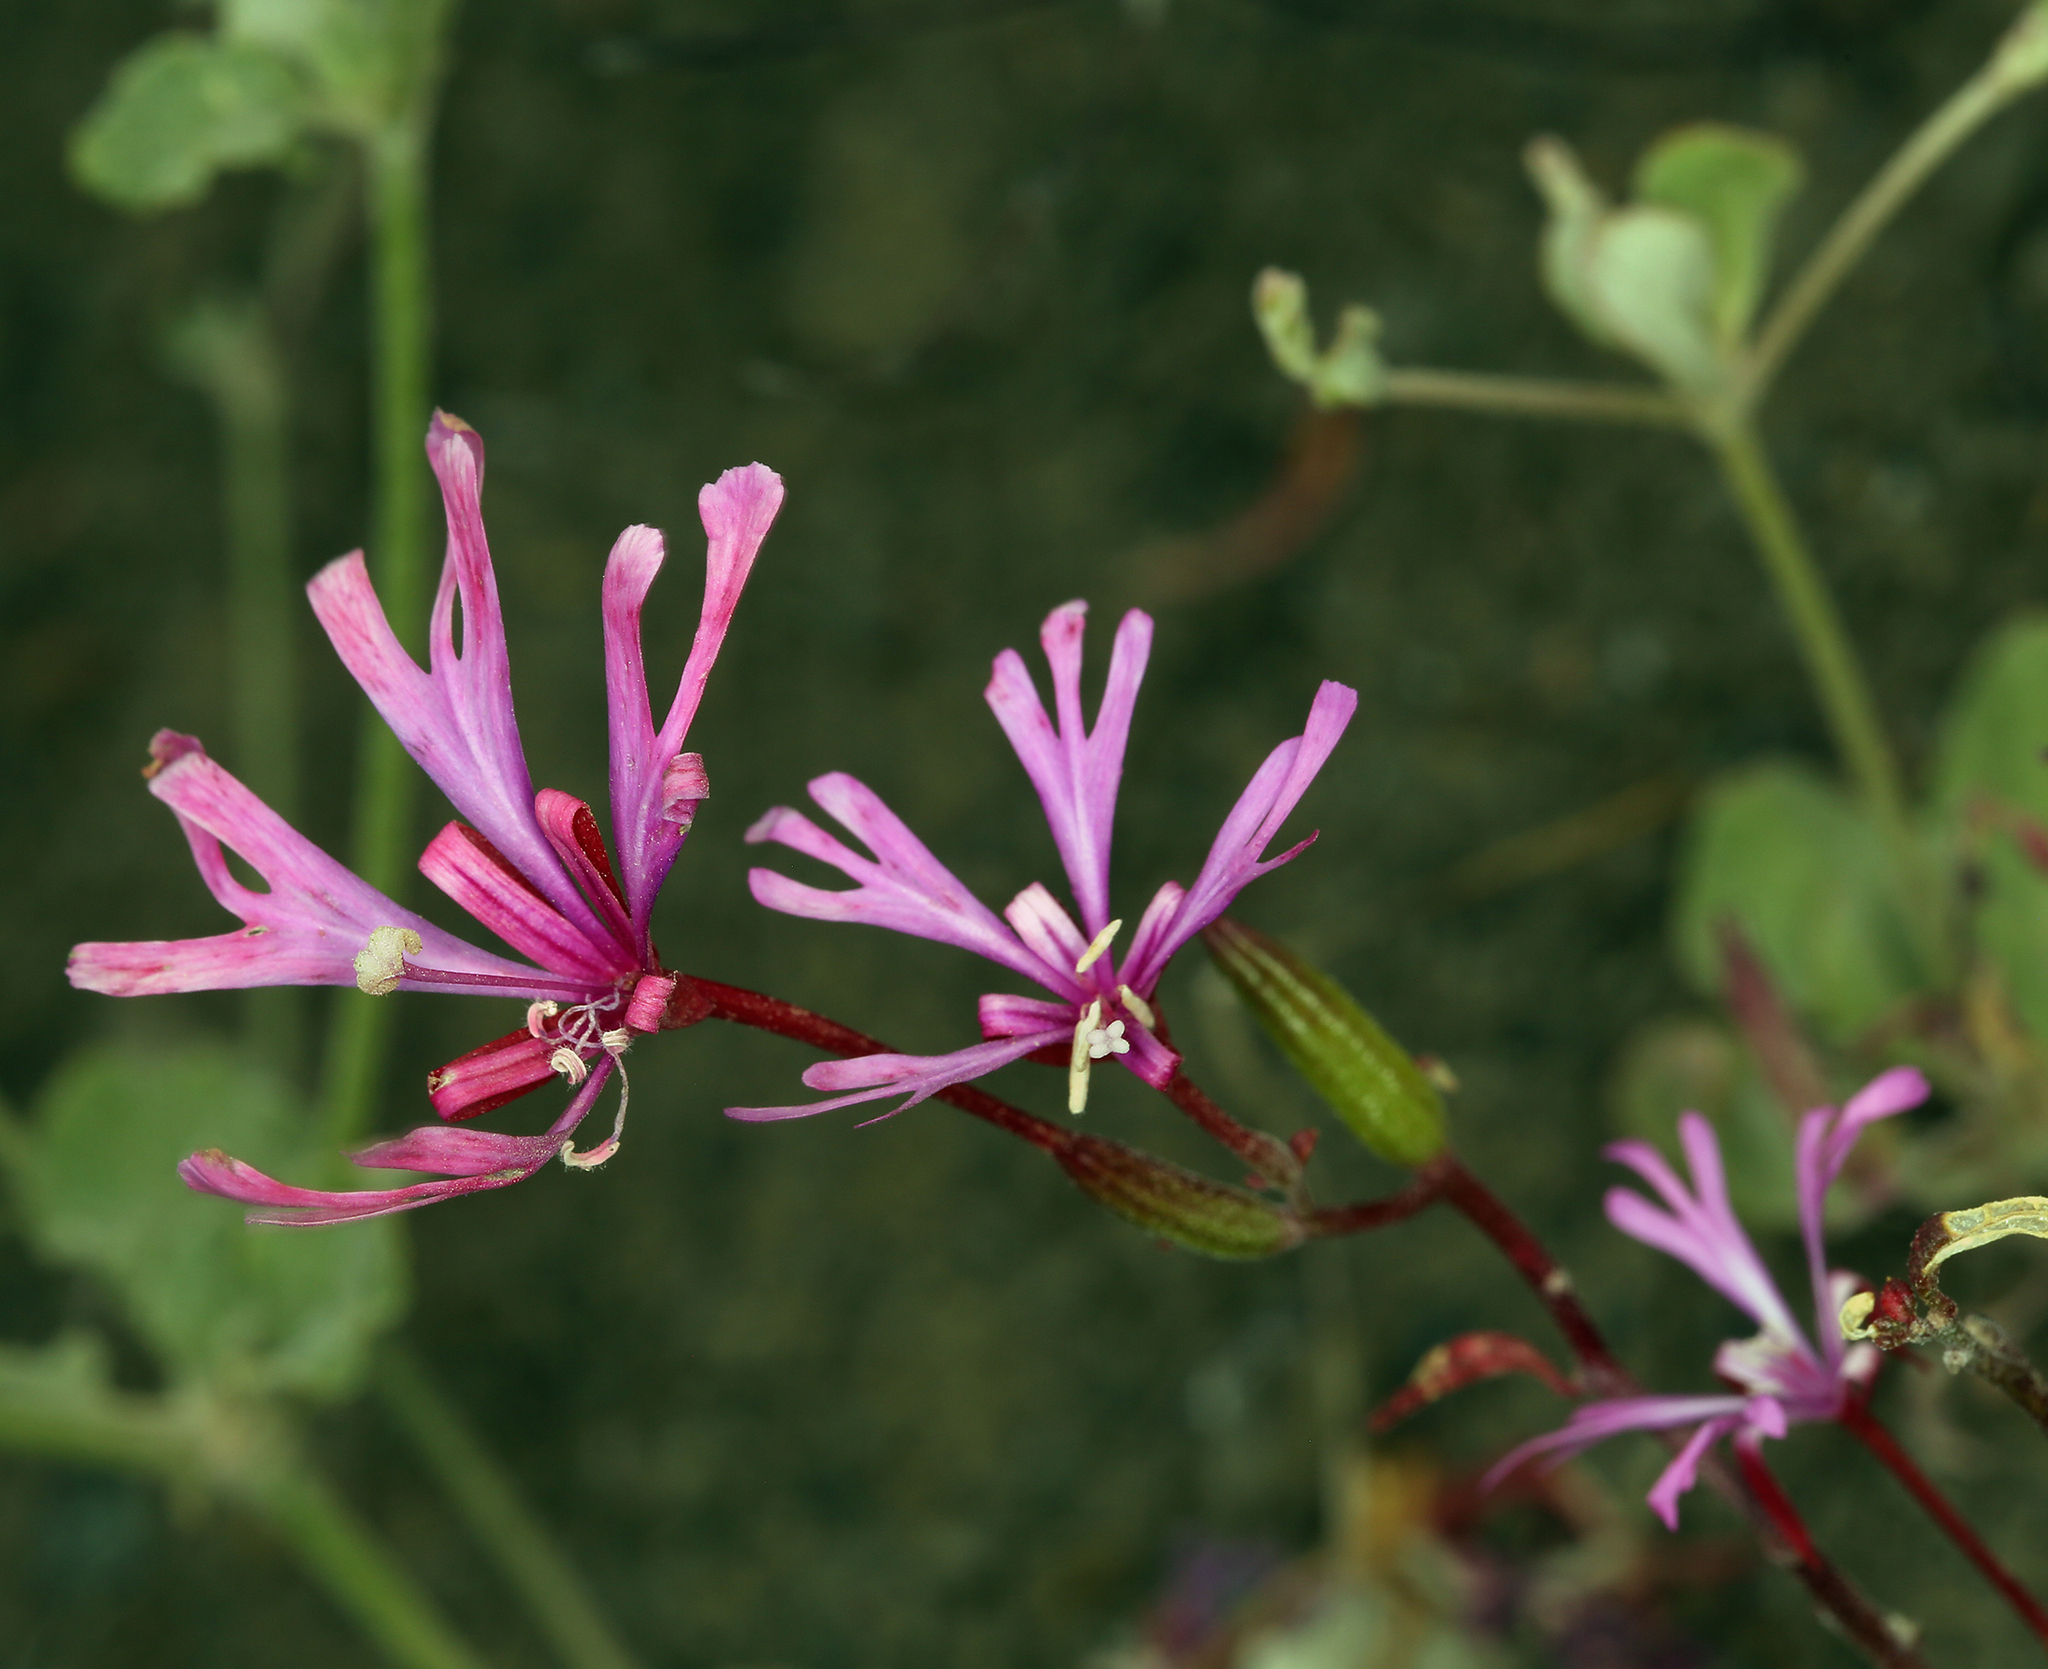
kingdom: Plantae
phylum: Tracheophyta
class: Magnoliopsida
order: Myrtales
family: Onagraceae
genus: Clarkia
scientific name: Clarkia concinna
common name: Red-ribbons
